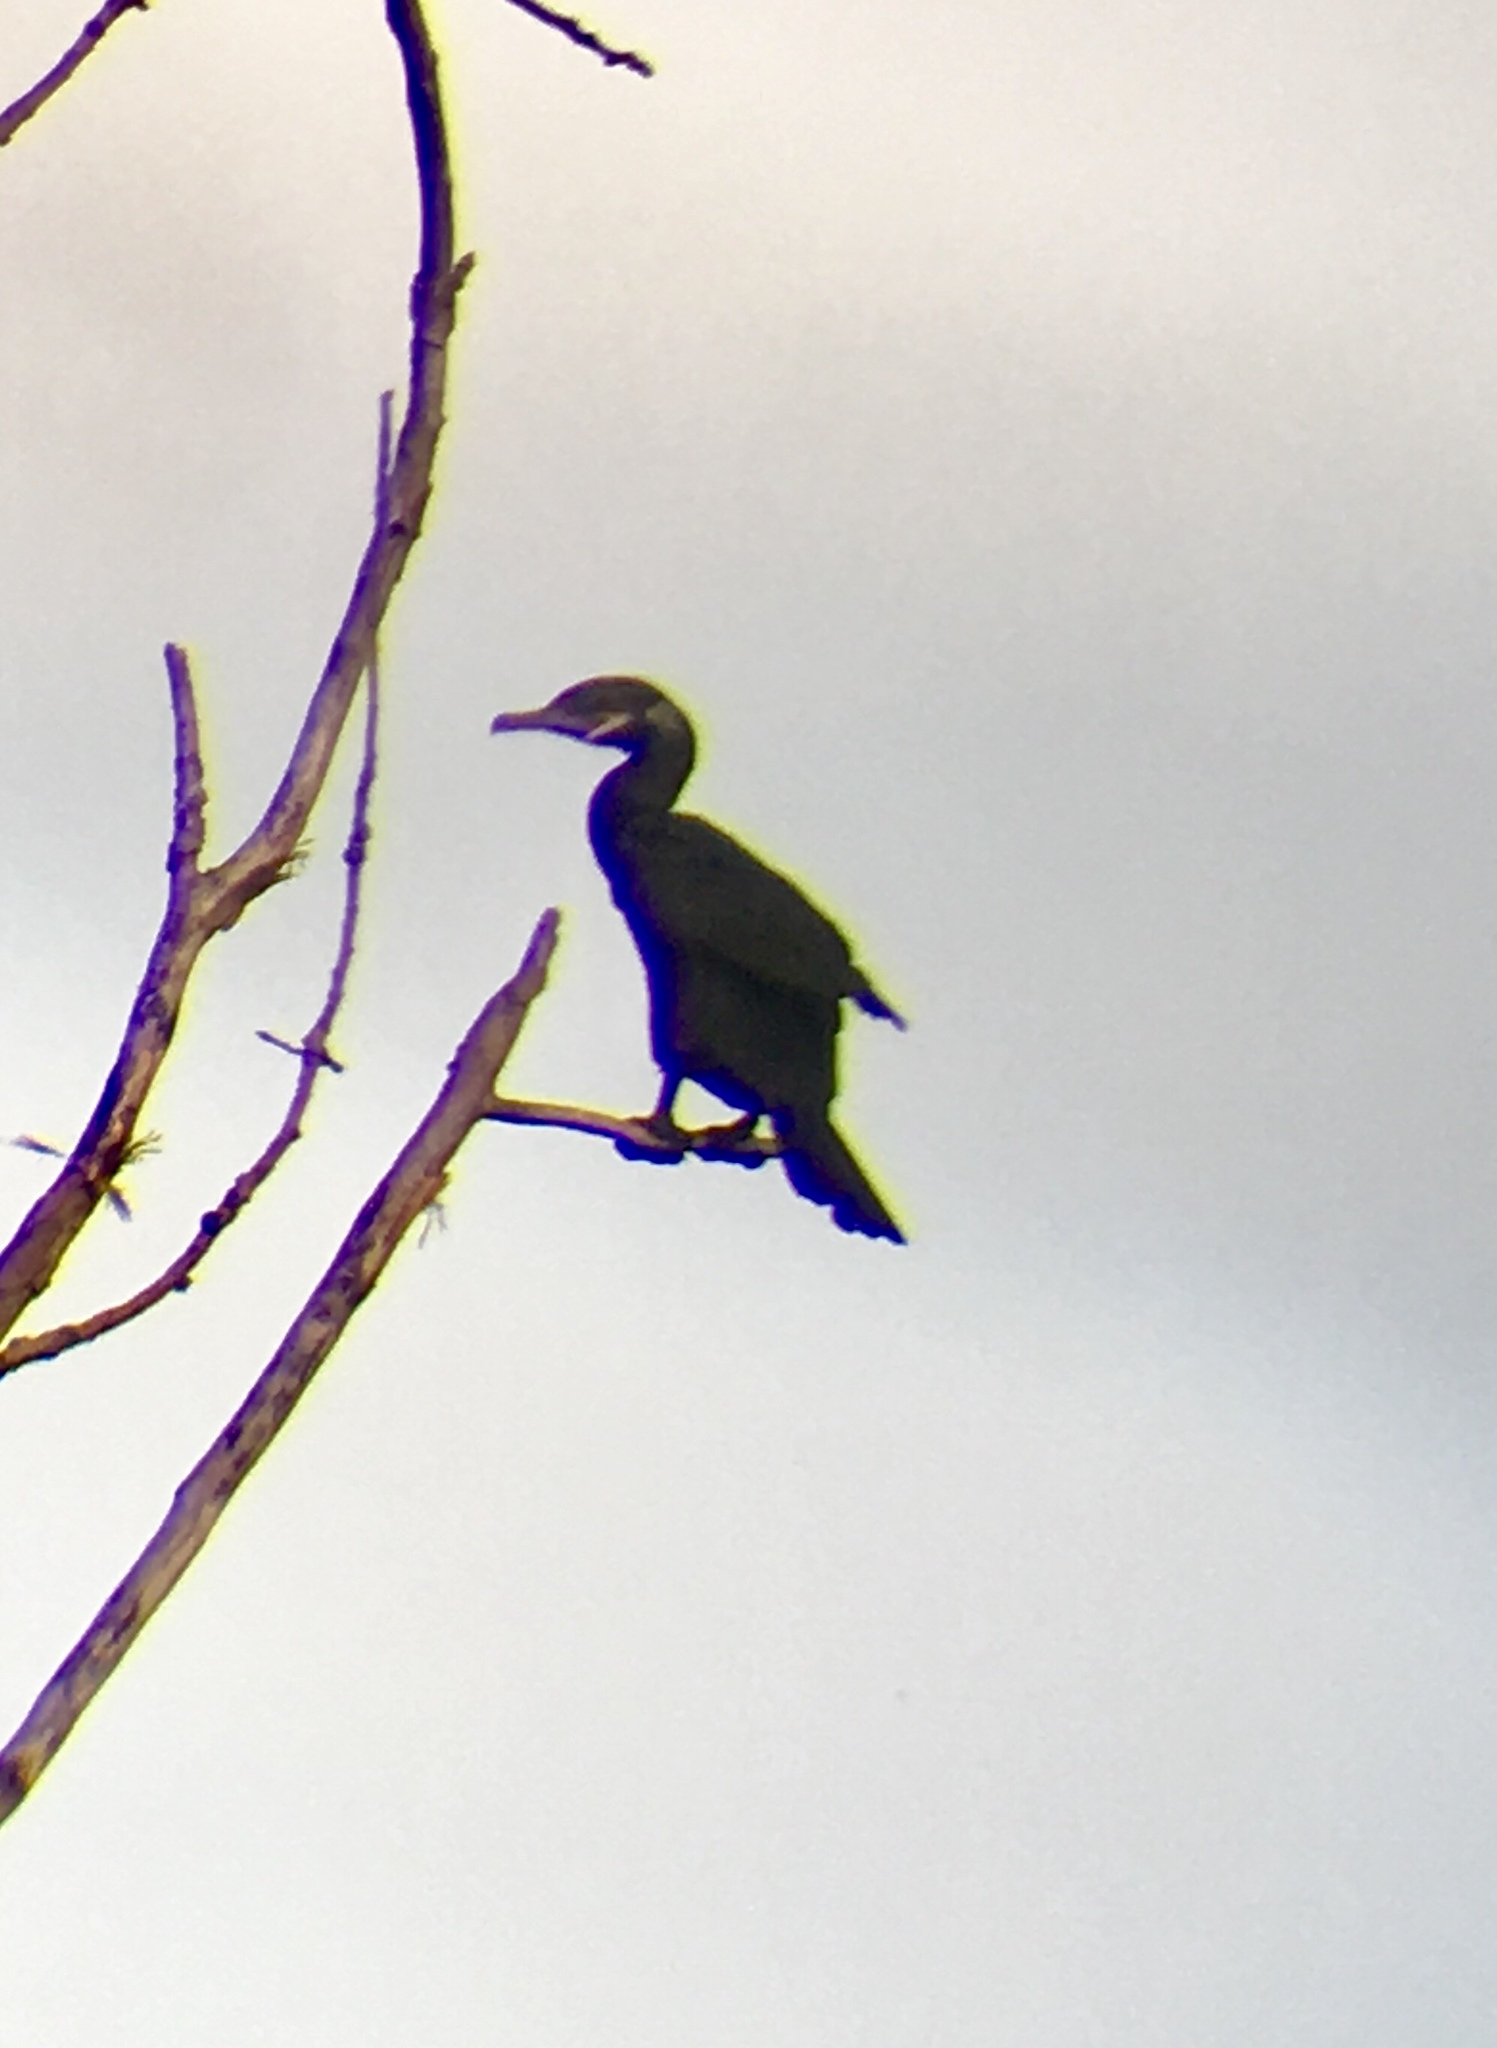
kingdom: Animalia
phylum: Chordata
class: Aves
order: Suliformes
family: Phalacrocoracidae
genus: Phalacrocorax
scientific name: Phalacrocorax brasilianus
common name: Neotropic cormorant
